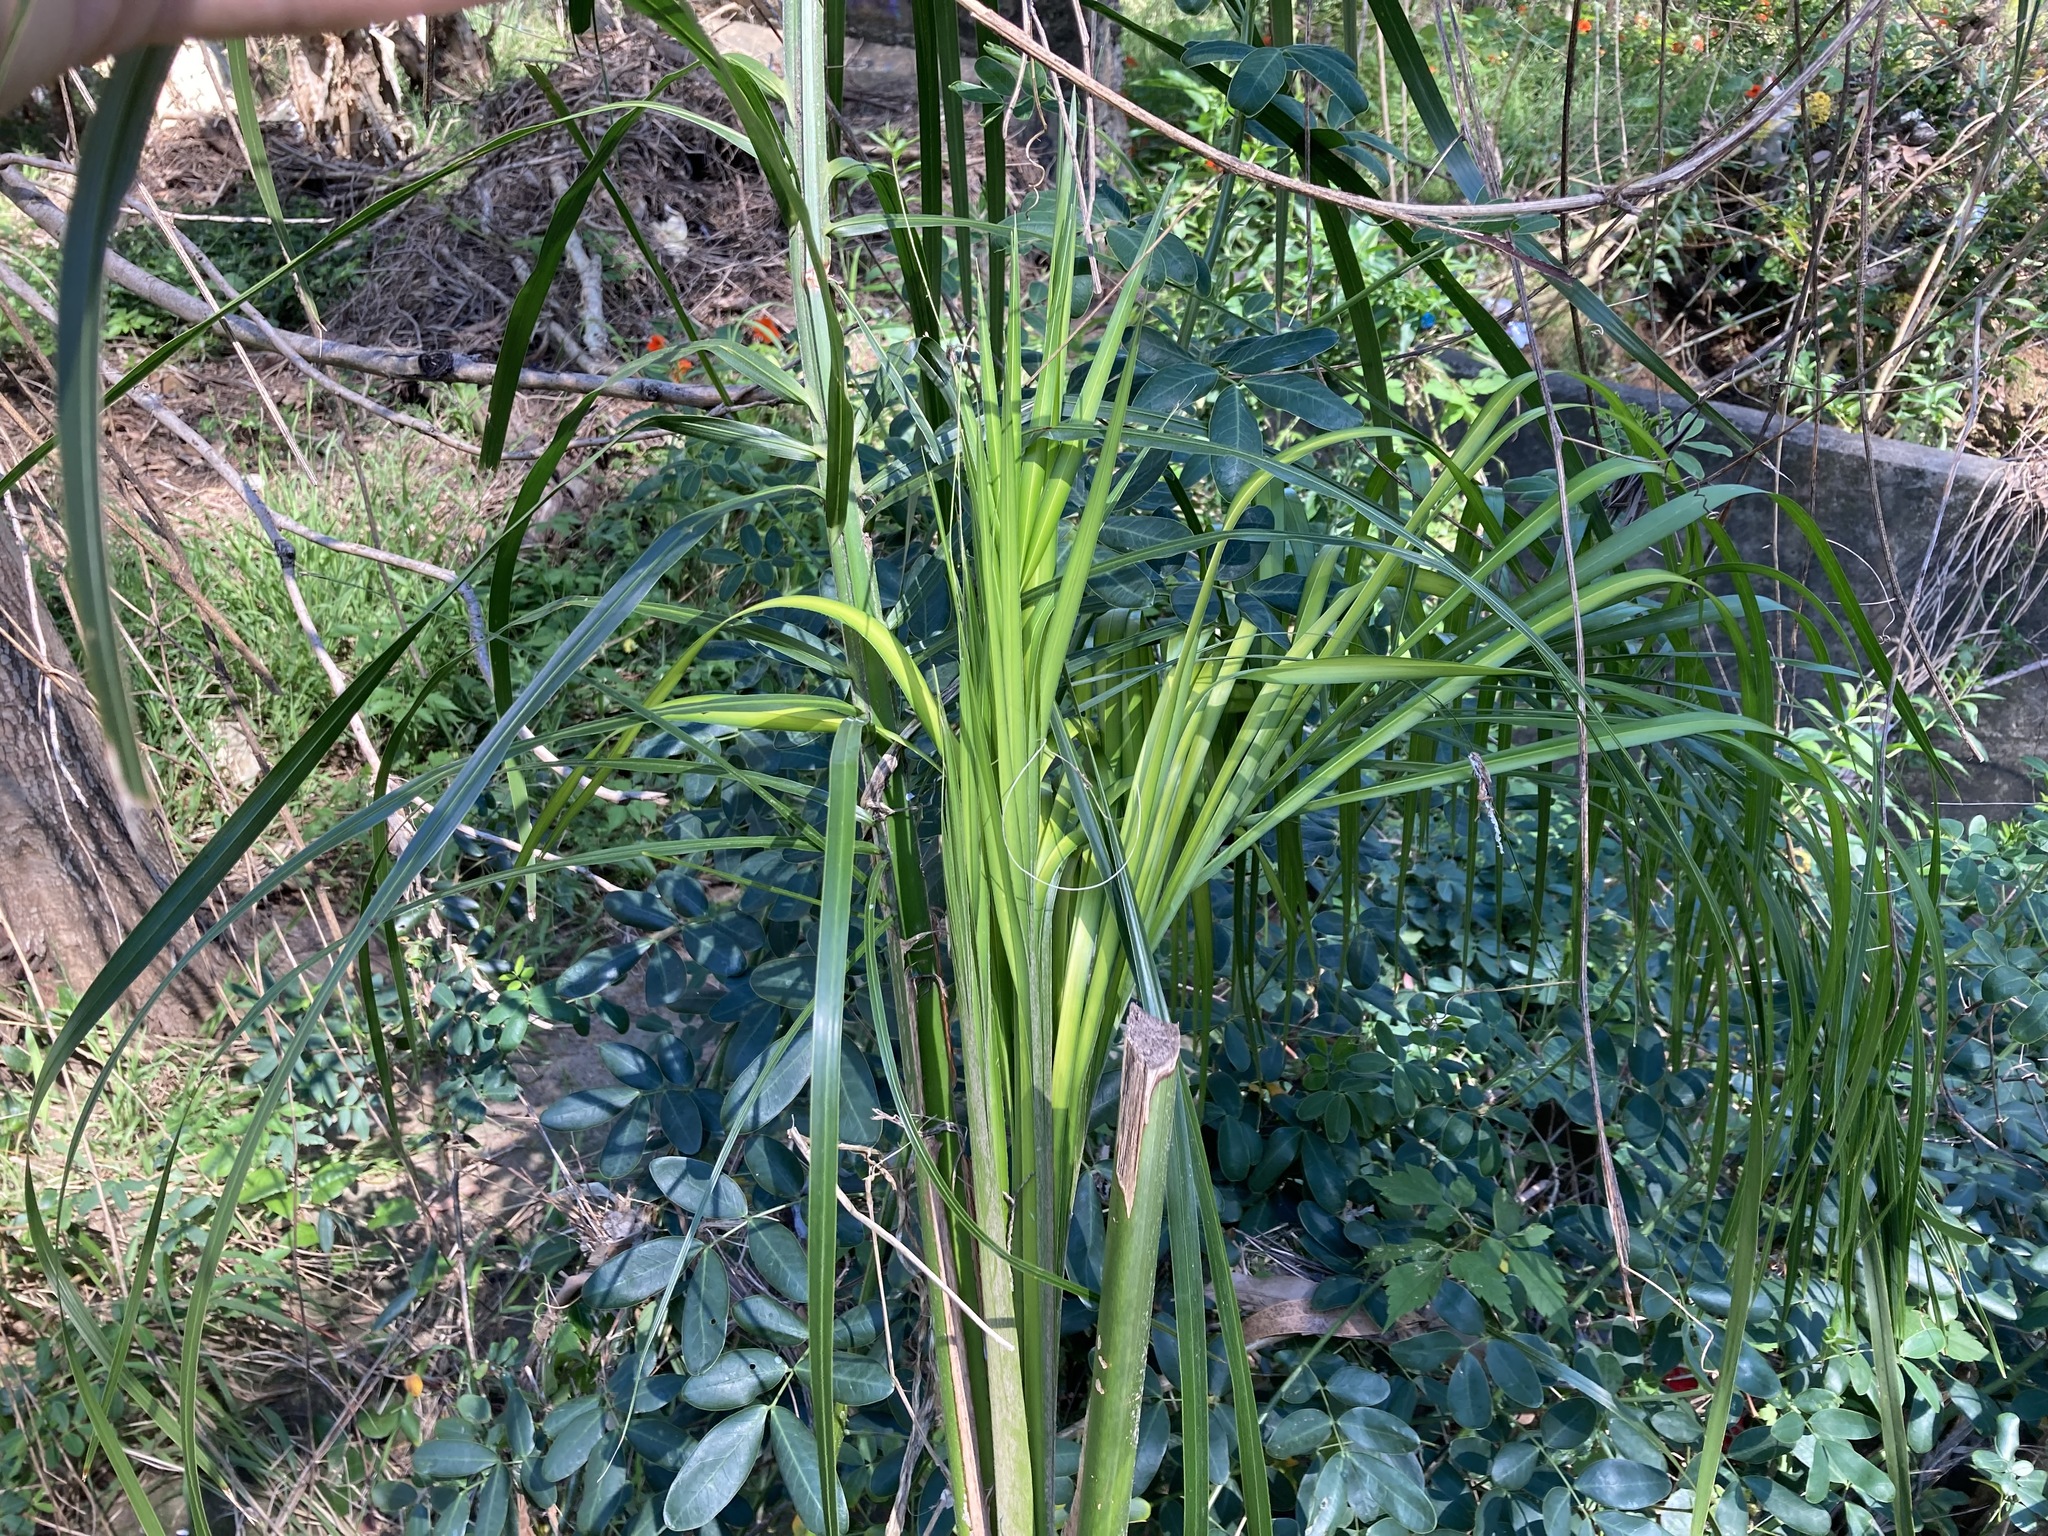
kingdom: Plantae
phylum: Tracheophyta
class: Liliopsida
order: Arecales
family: Arecaceae
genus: Syagrus
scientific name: Syagrus romanzoffiana
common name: Queen palm
